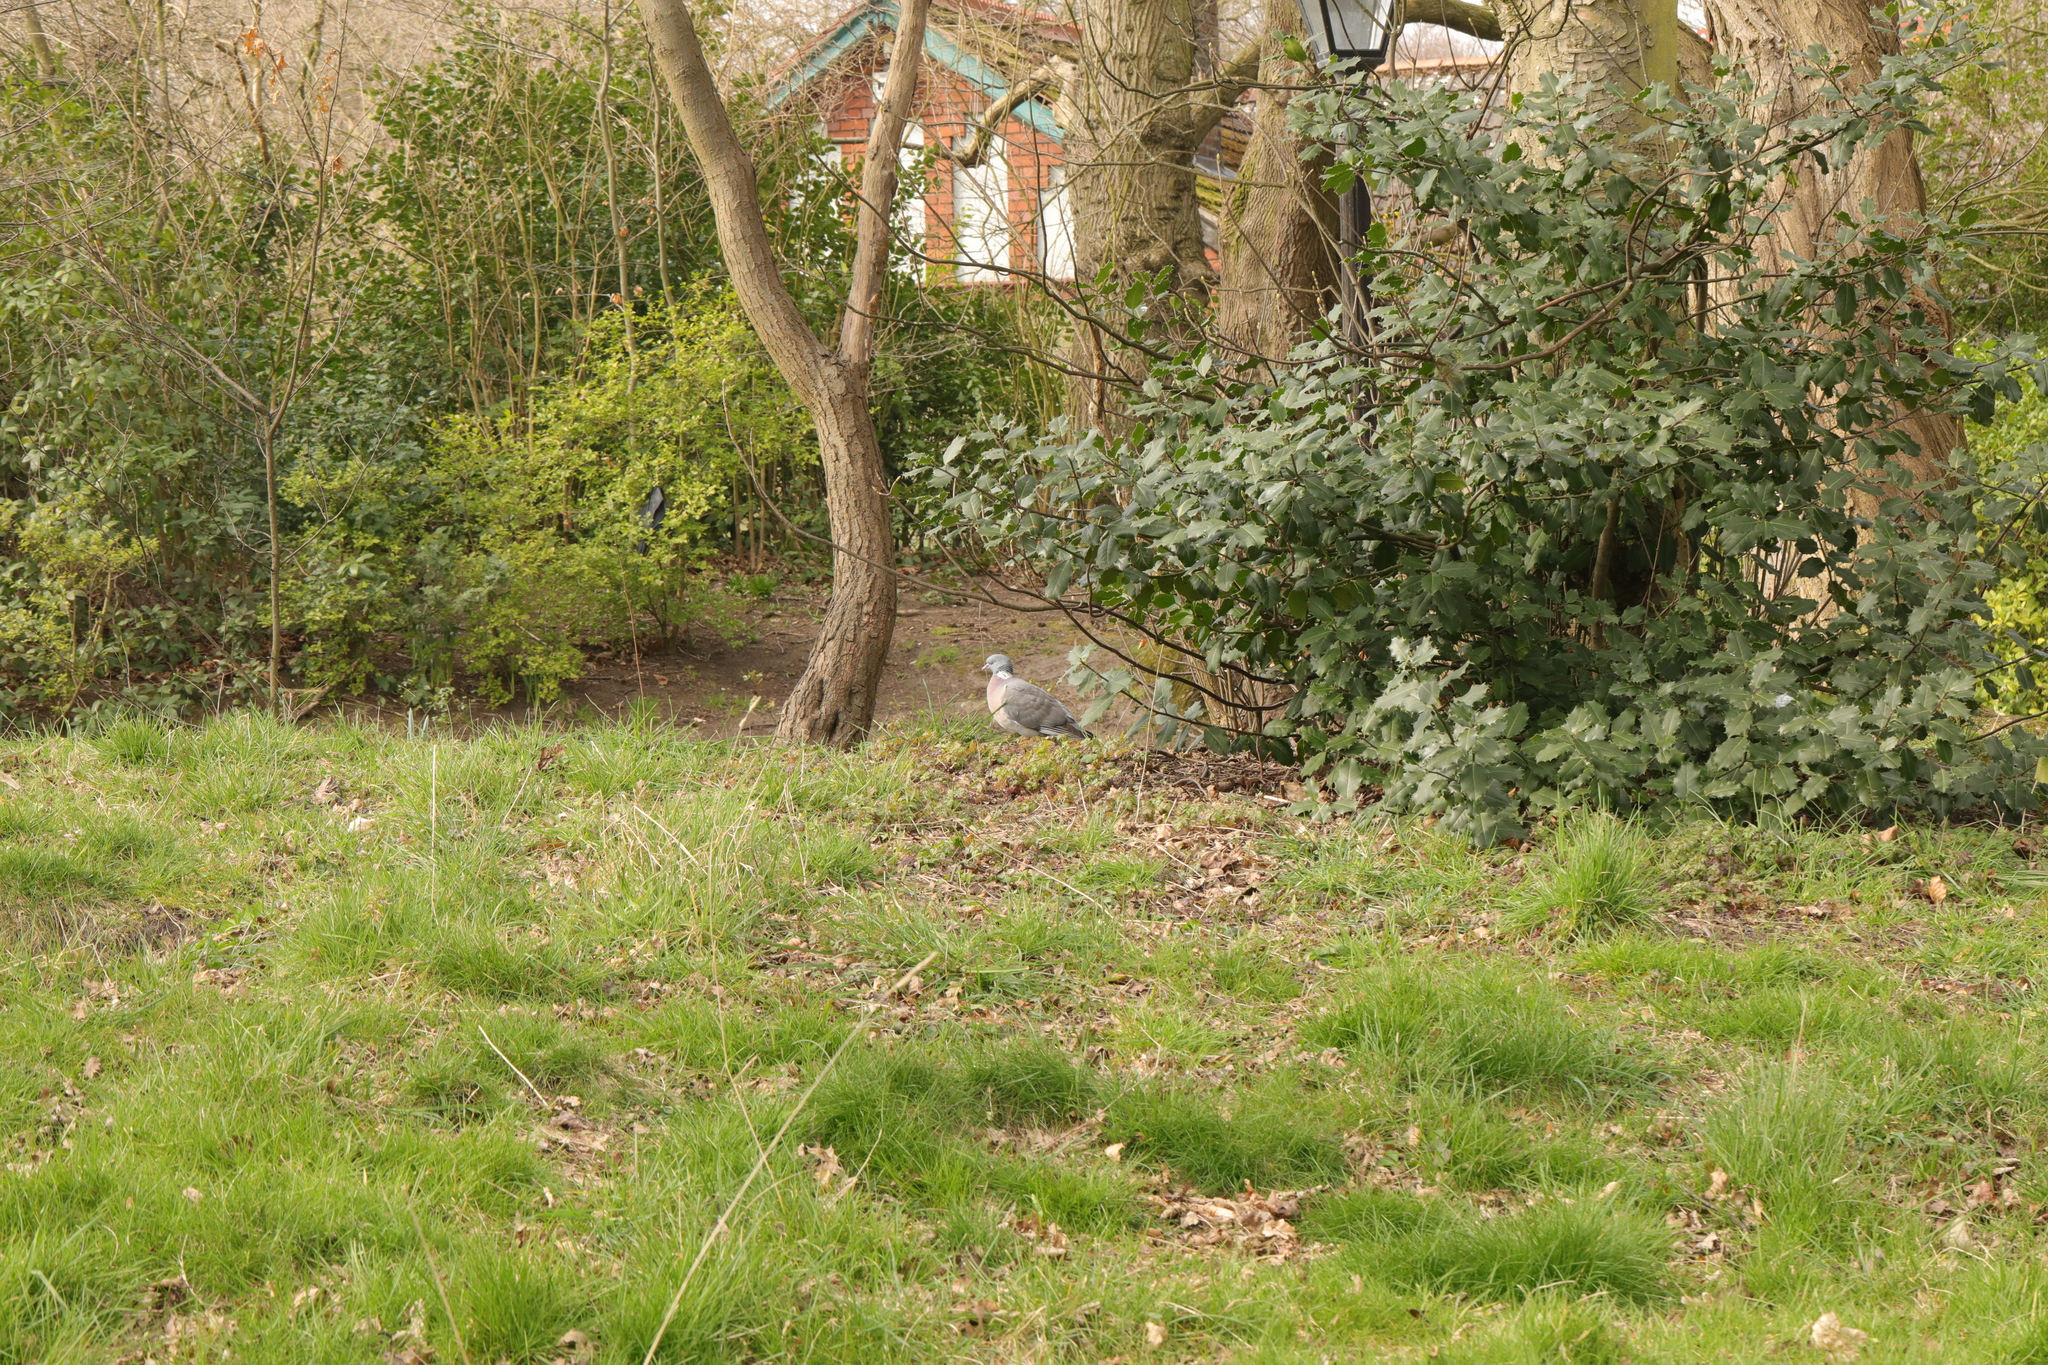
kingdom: Animalia
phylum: Chordata
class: Aves
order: Columbiformes
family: Columbidae
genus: Columba
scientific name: Columba palumbus
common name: Common wood pigeon
